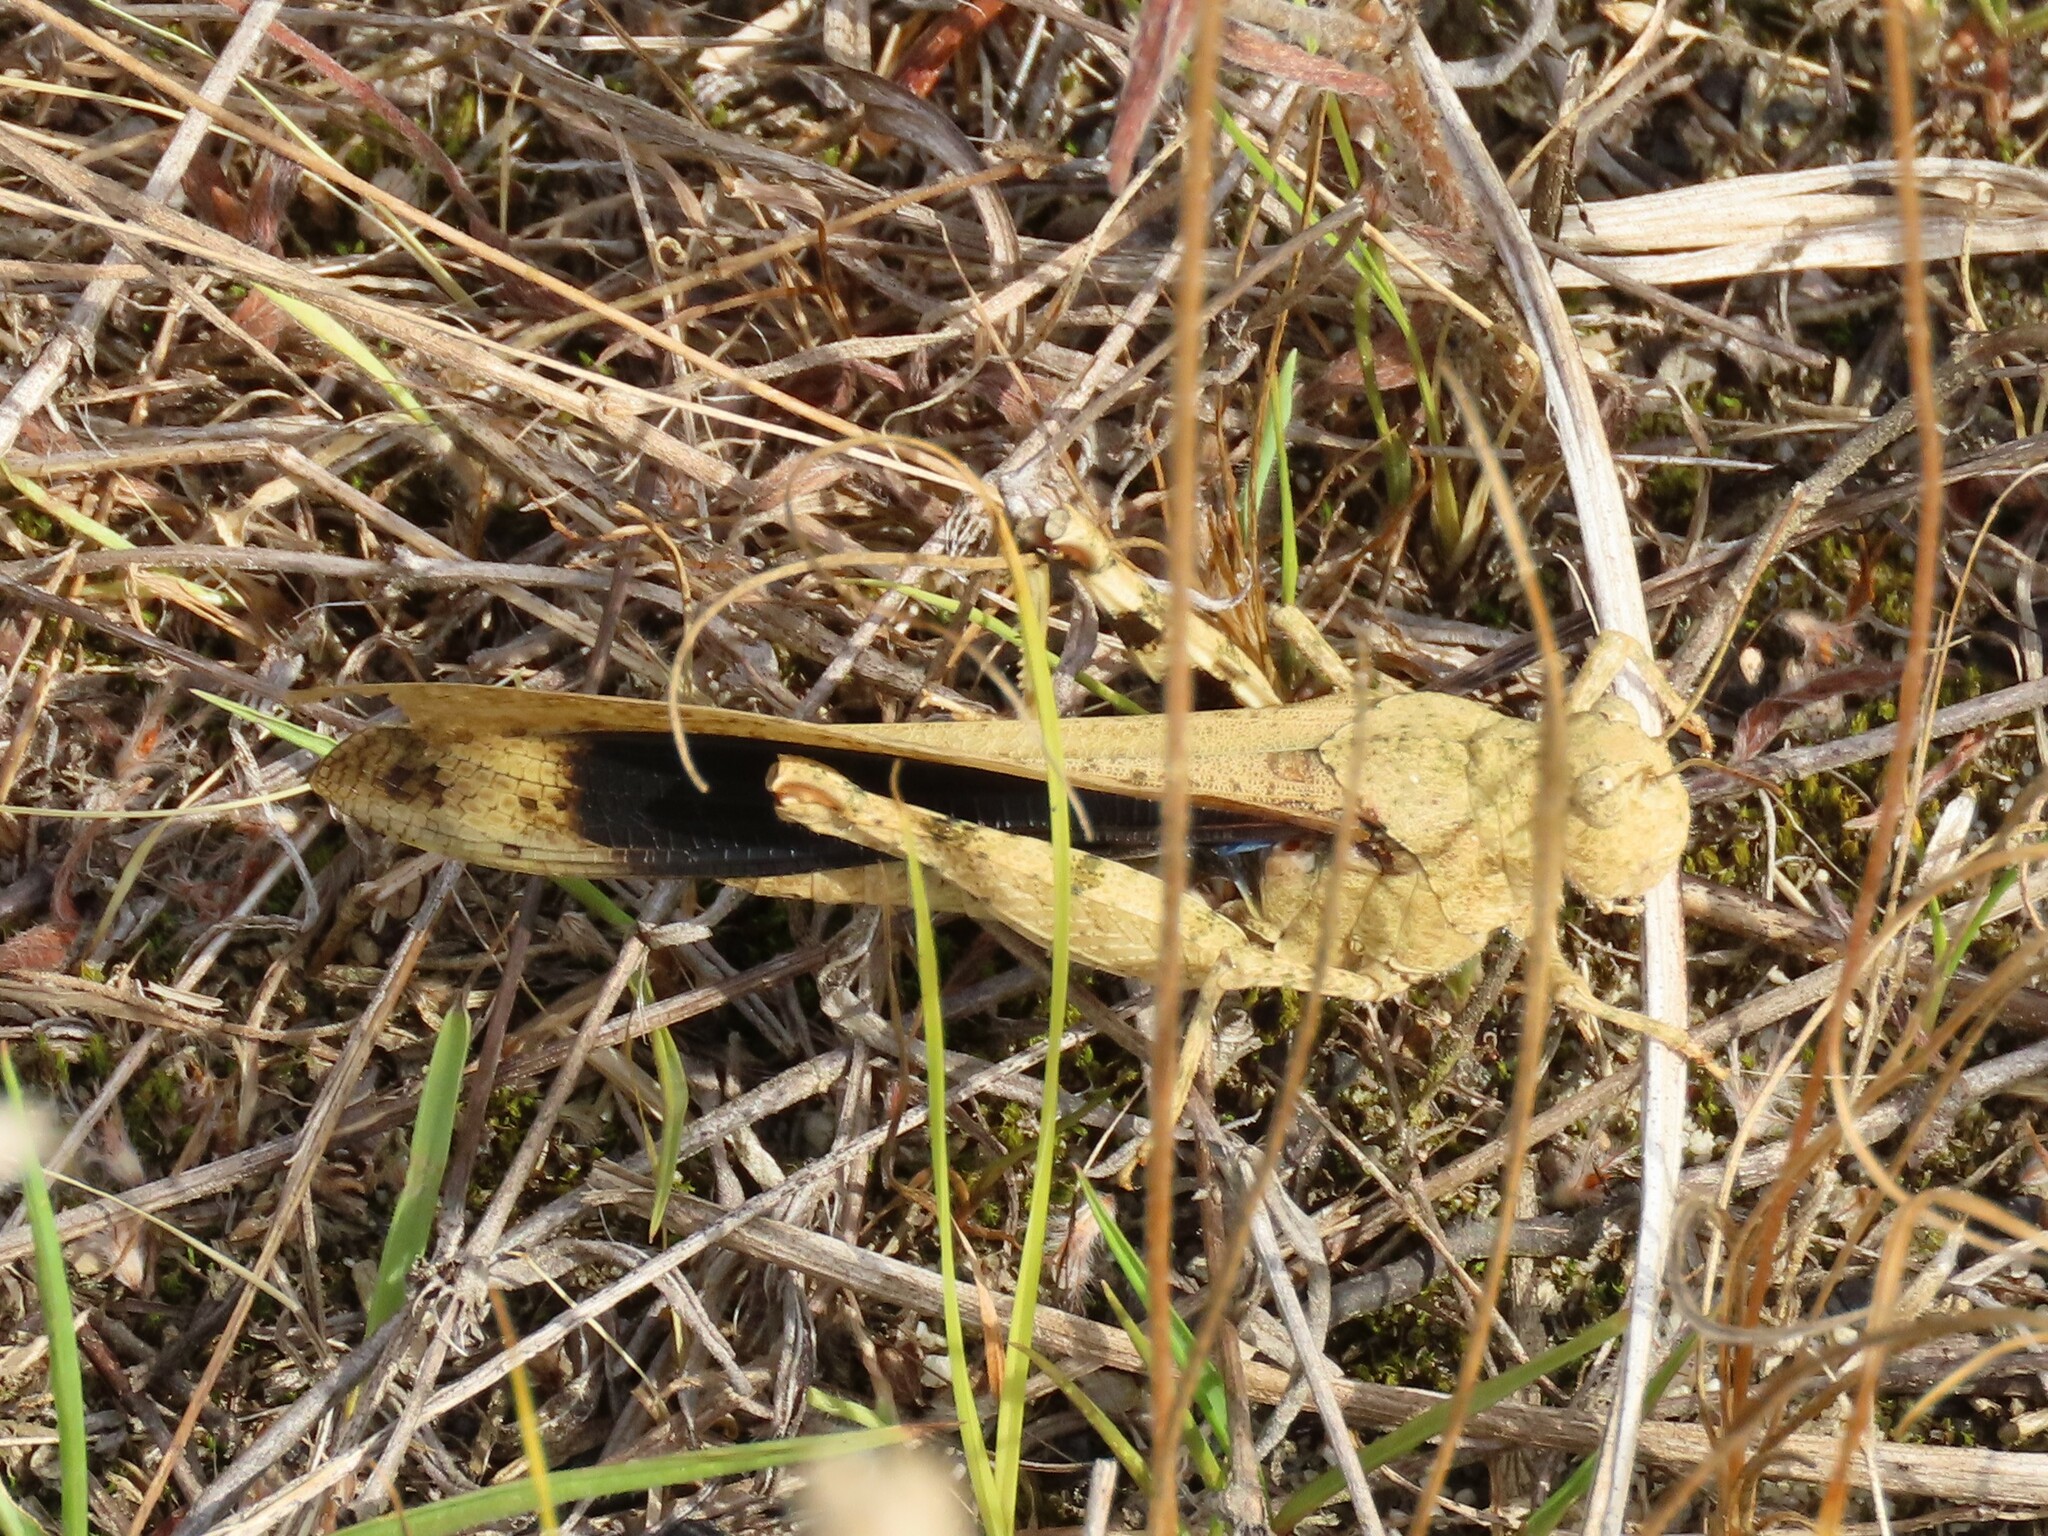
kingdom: Animalia
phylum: Arthropoda
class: Insecta
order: Orthoptera
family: Acrididae
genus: Dissosteira
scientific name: Dissosteira carolina
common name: Carolina grasshopper
